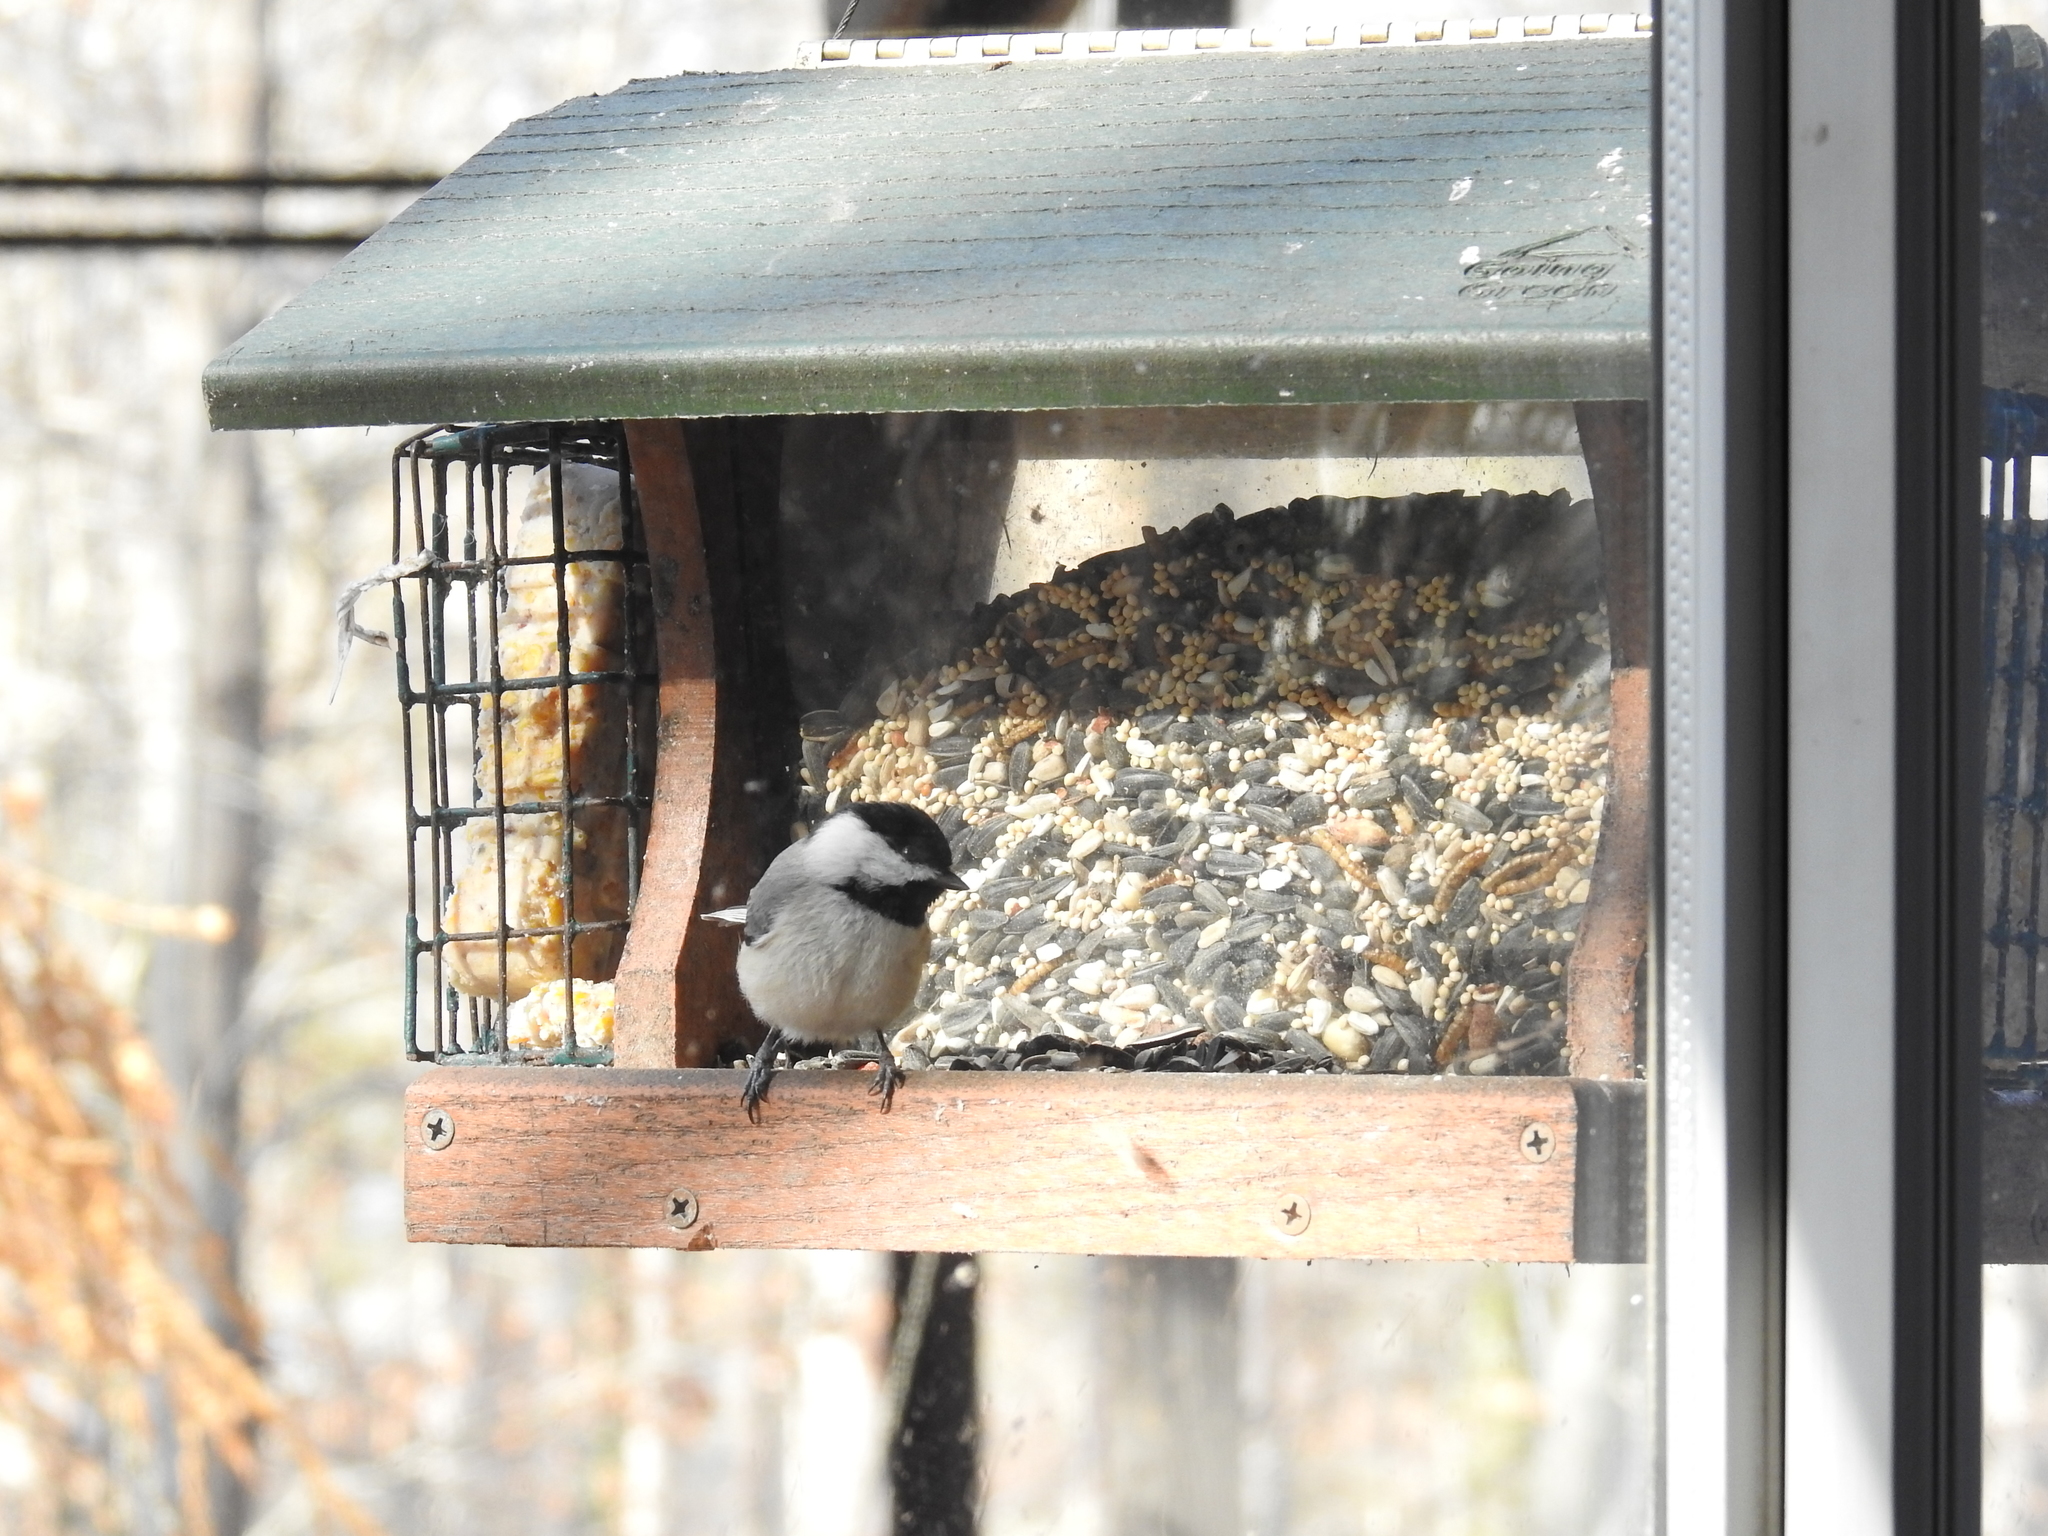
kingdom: Animalia
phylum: Chordata
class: Aves
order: Passeriformes
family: Paridae
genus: Poecile
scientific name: Poecile carolinensis
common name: Carolina chickadee
